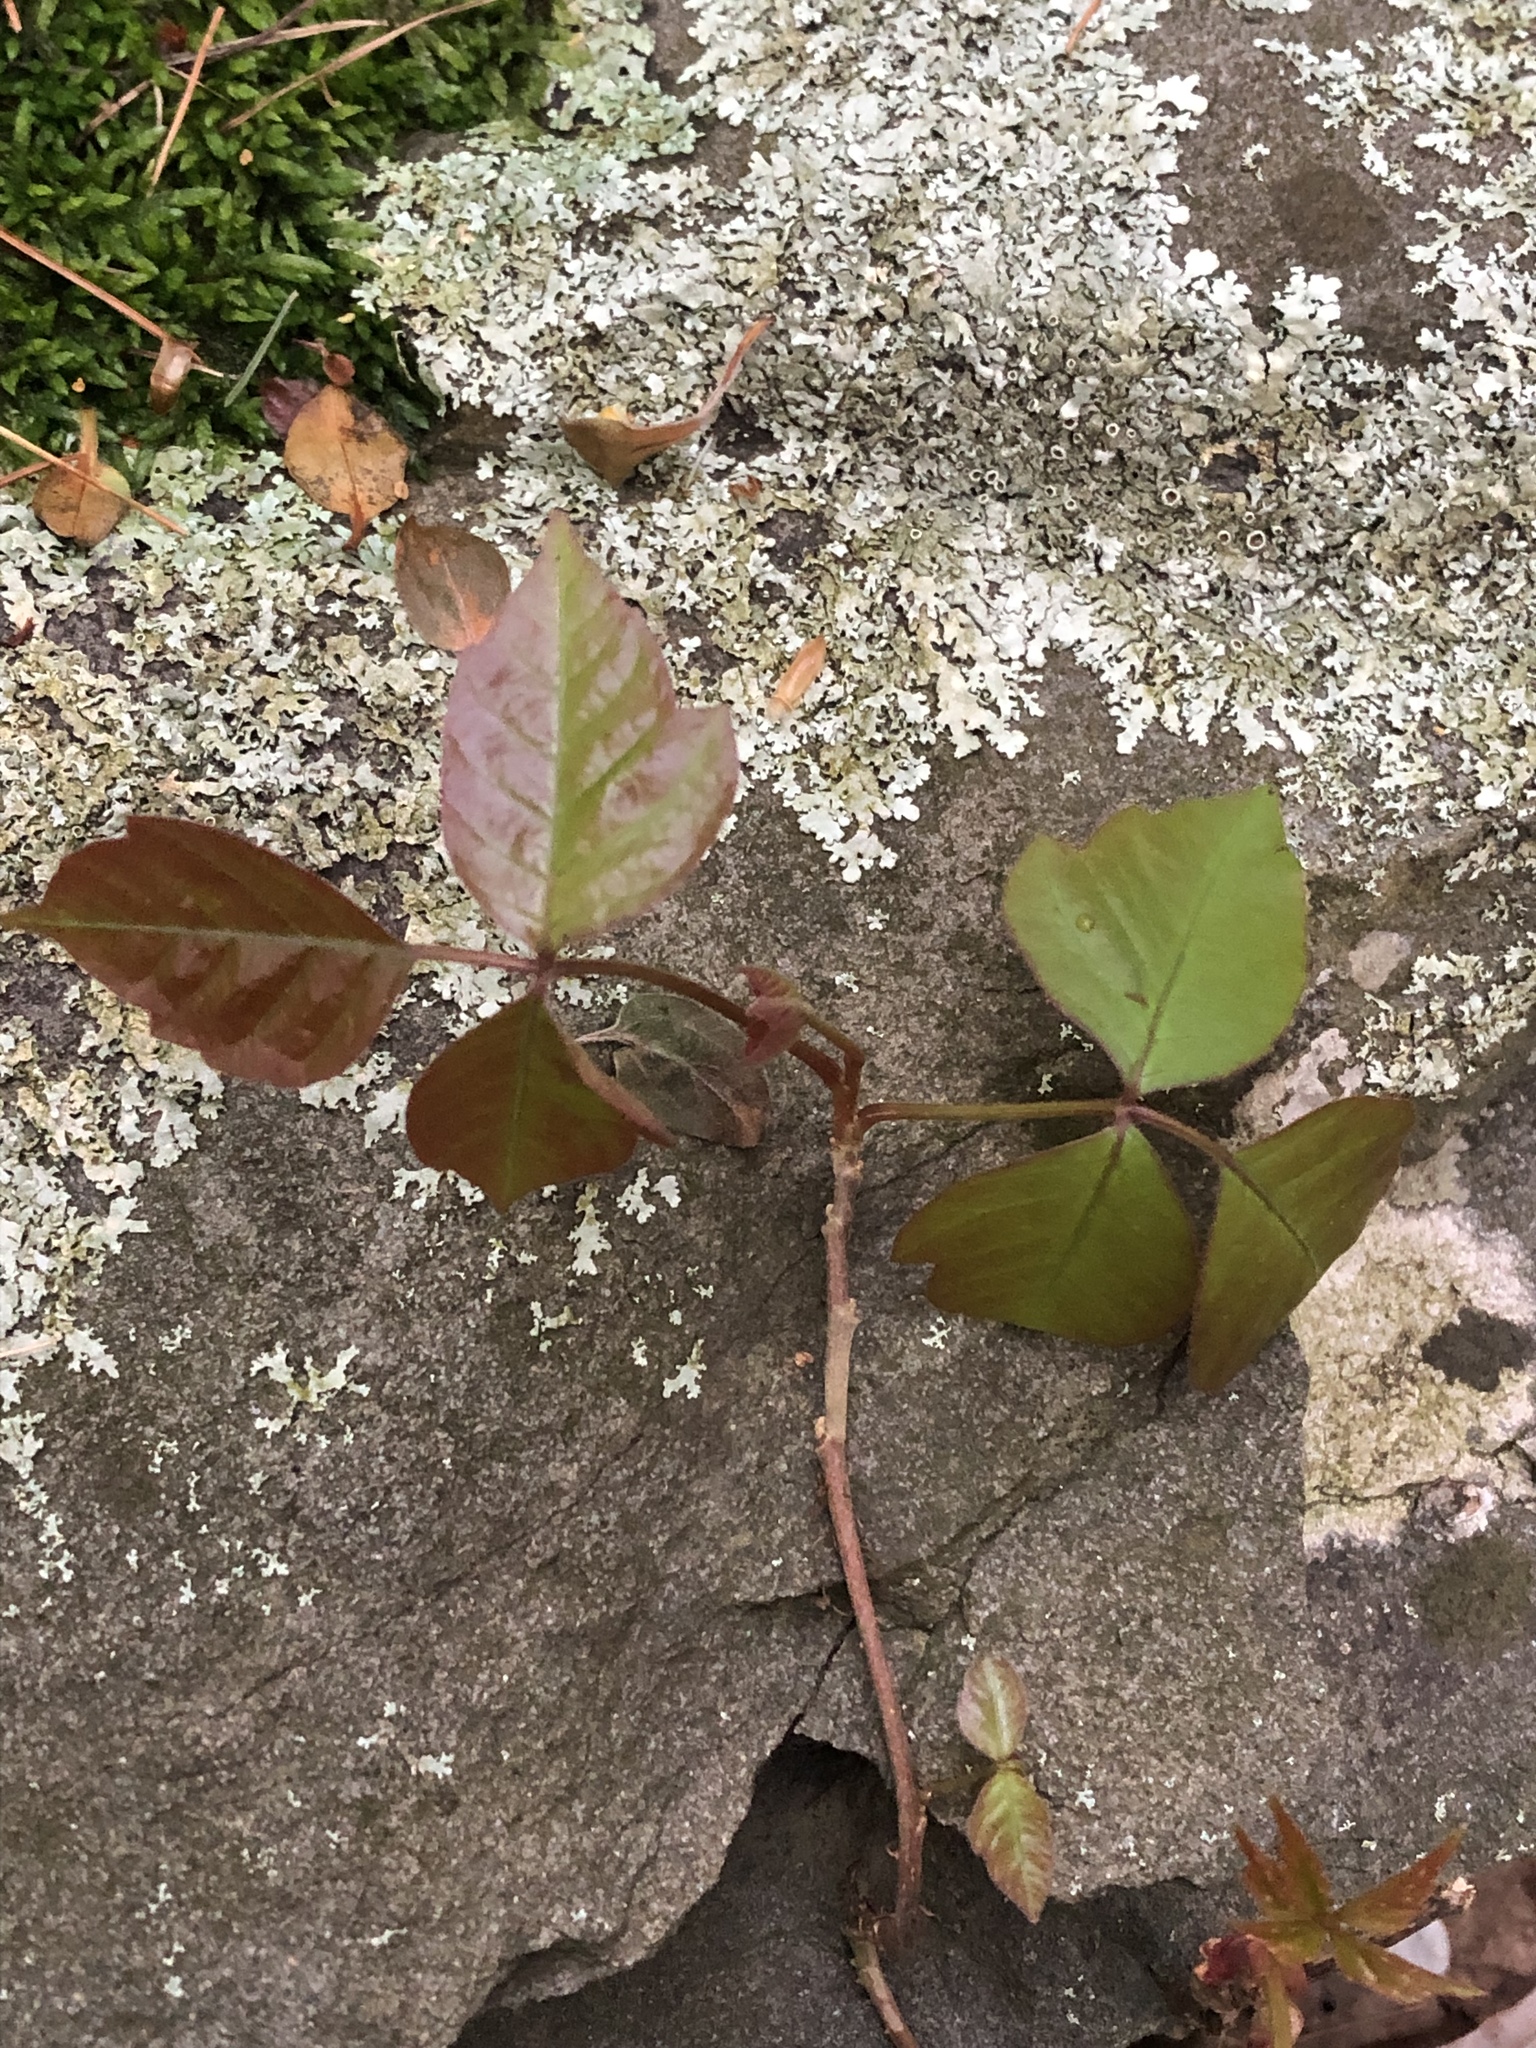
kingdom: Plantae
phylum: Tracheophyta
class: Magnoliopsida
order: Sapindales
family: Anacardiaceae
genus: Toxicodendron
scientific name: Toxicodendron radicans
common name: Poison ivy
